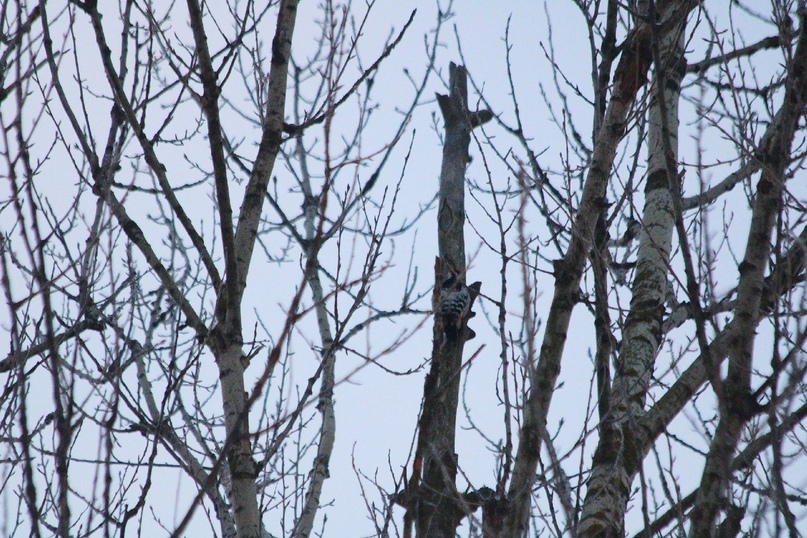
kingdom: Animalia
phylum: Chordata
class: Aves
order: Piciformes
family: Picidae
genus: Dendrocopos
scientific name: Dendrocopos leucotos
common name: White-backed woodpecker
